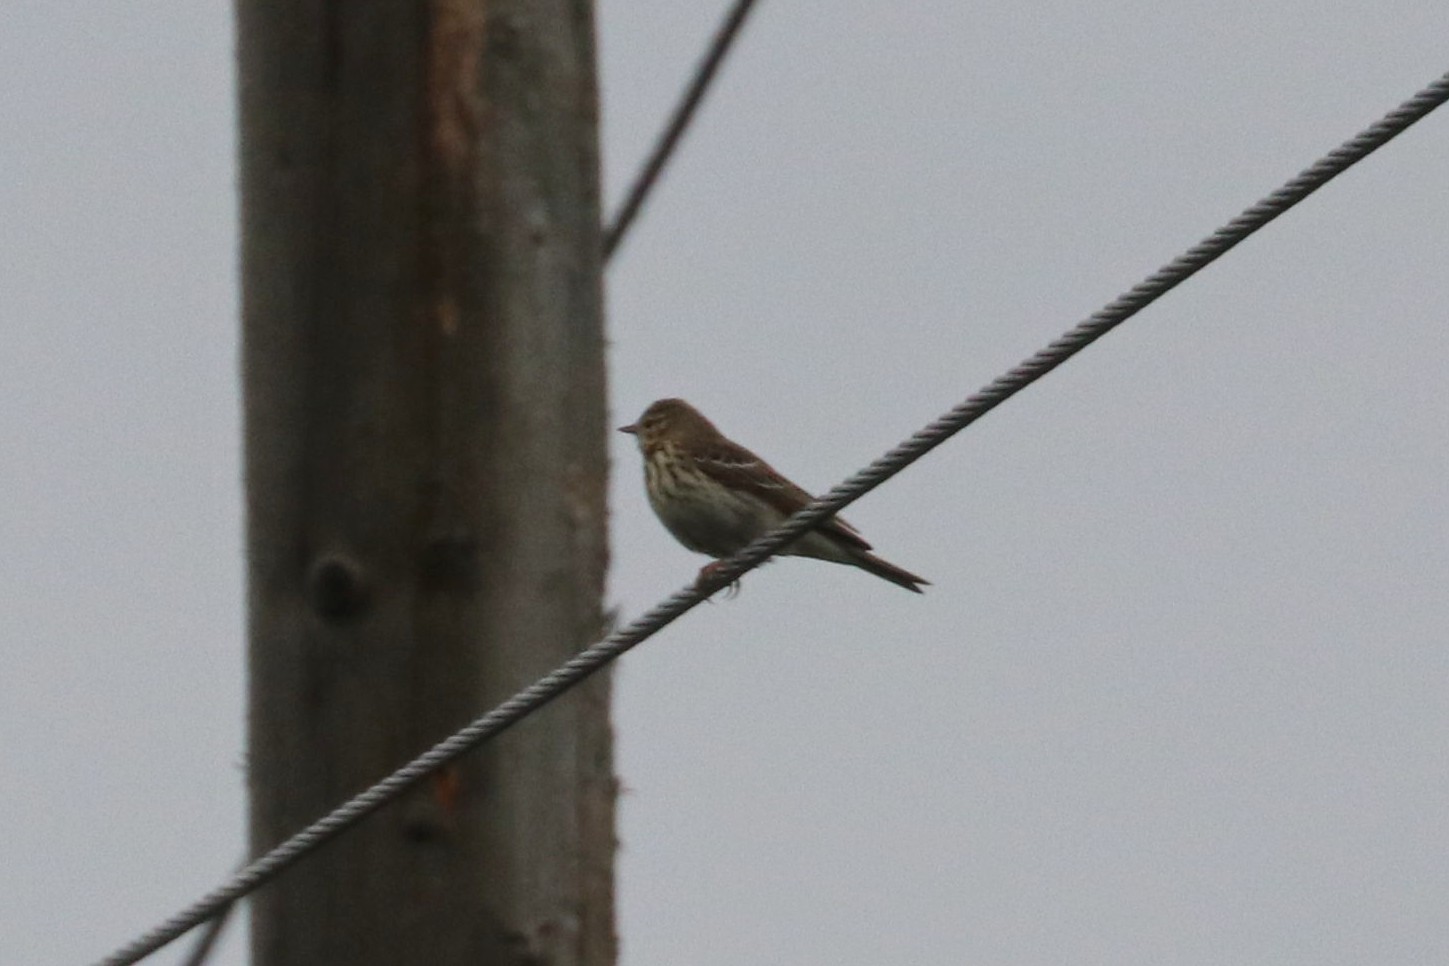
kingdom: Animalia
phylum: Chordata
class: Aves
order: Passeriformes
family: Motacillidae
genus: Anthus
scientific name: Anthus trivialis
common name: Tree pipit
